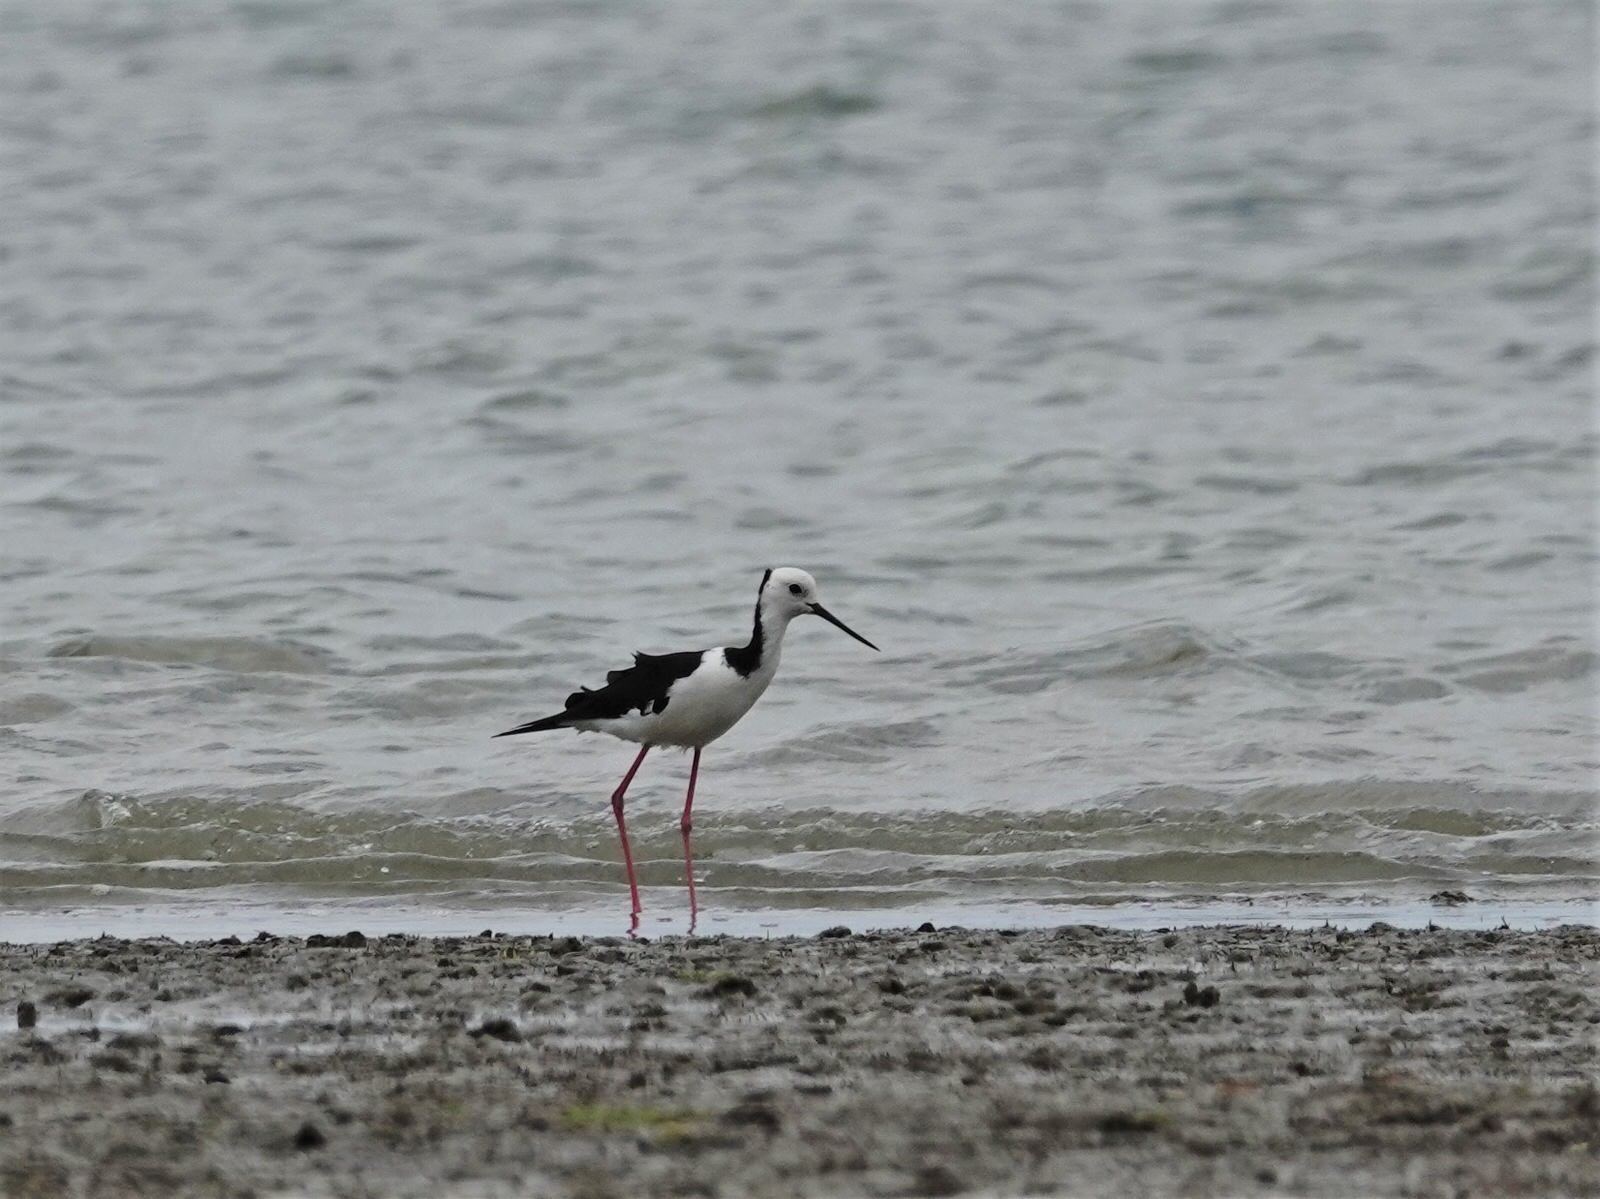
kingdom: Animalia
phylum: Chordata
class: Aves
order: Charadriiformes
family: Recurvirostridae
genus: Himantopus
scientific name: Himantopus leucocephalus
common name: White-headed stilt
